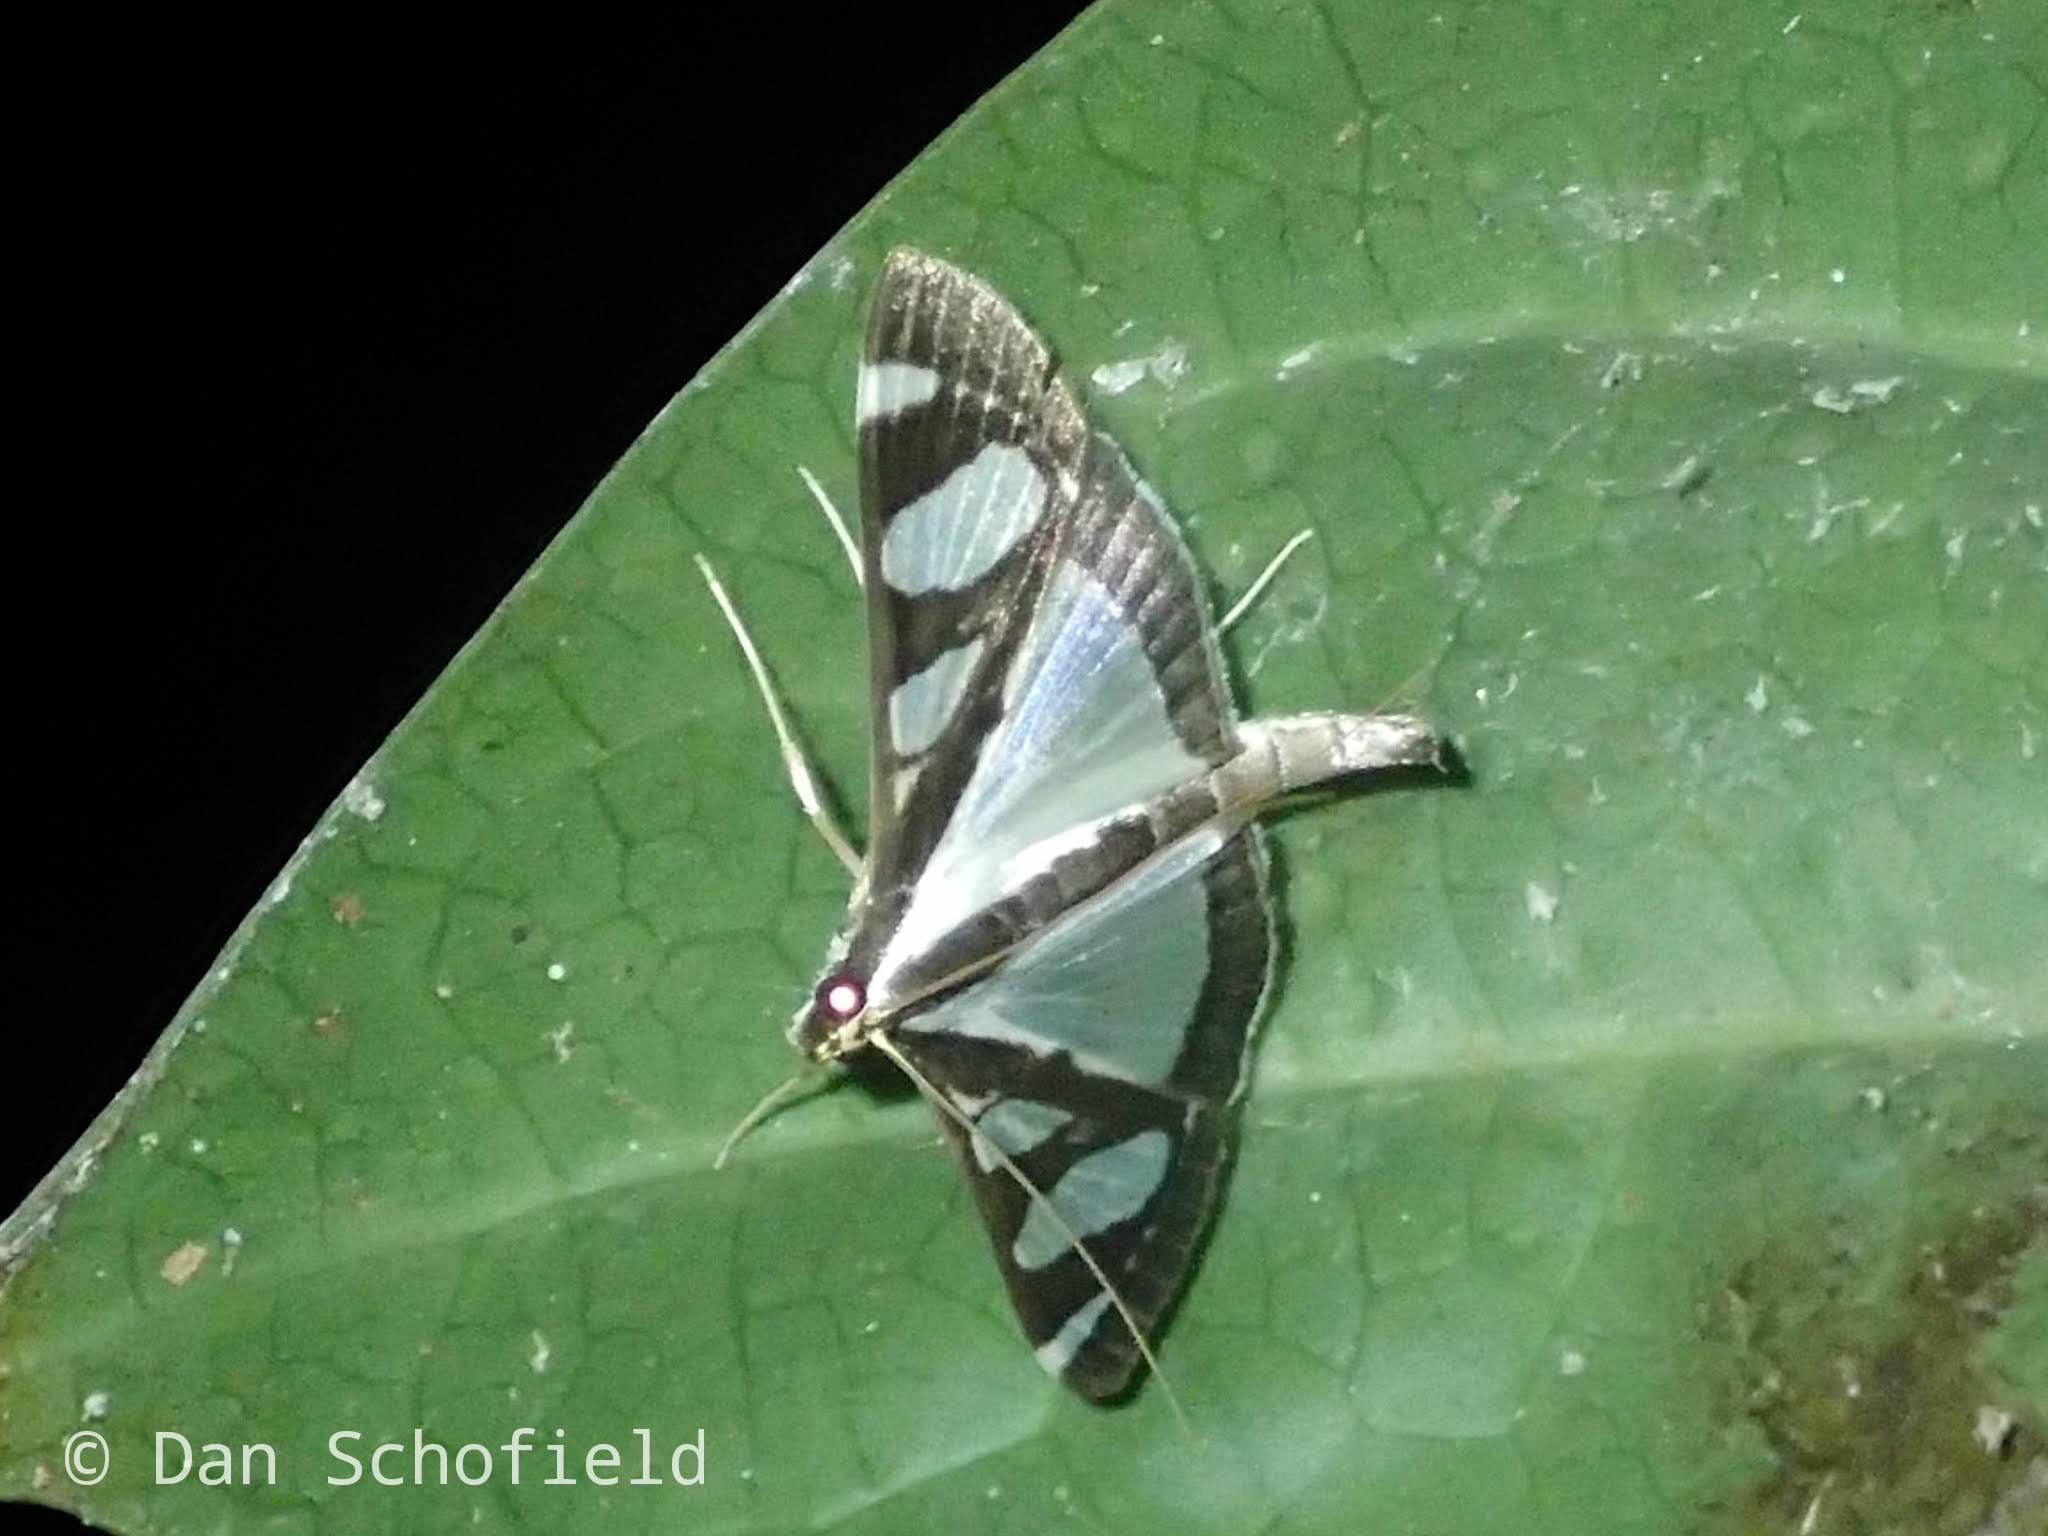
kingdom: Animalia
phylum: Arthropoda
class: Insecta
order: Lepidoptera
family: Crambidae
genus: Glyphodes
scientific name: Glyphodes quadrimaculalis
